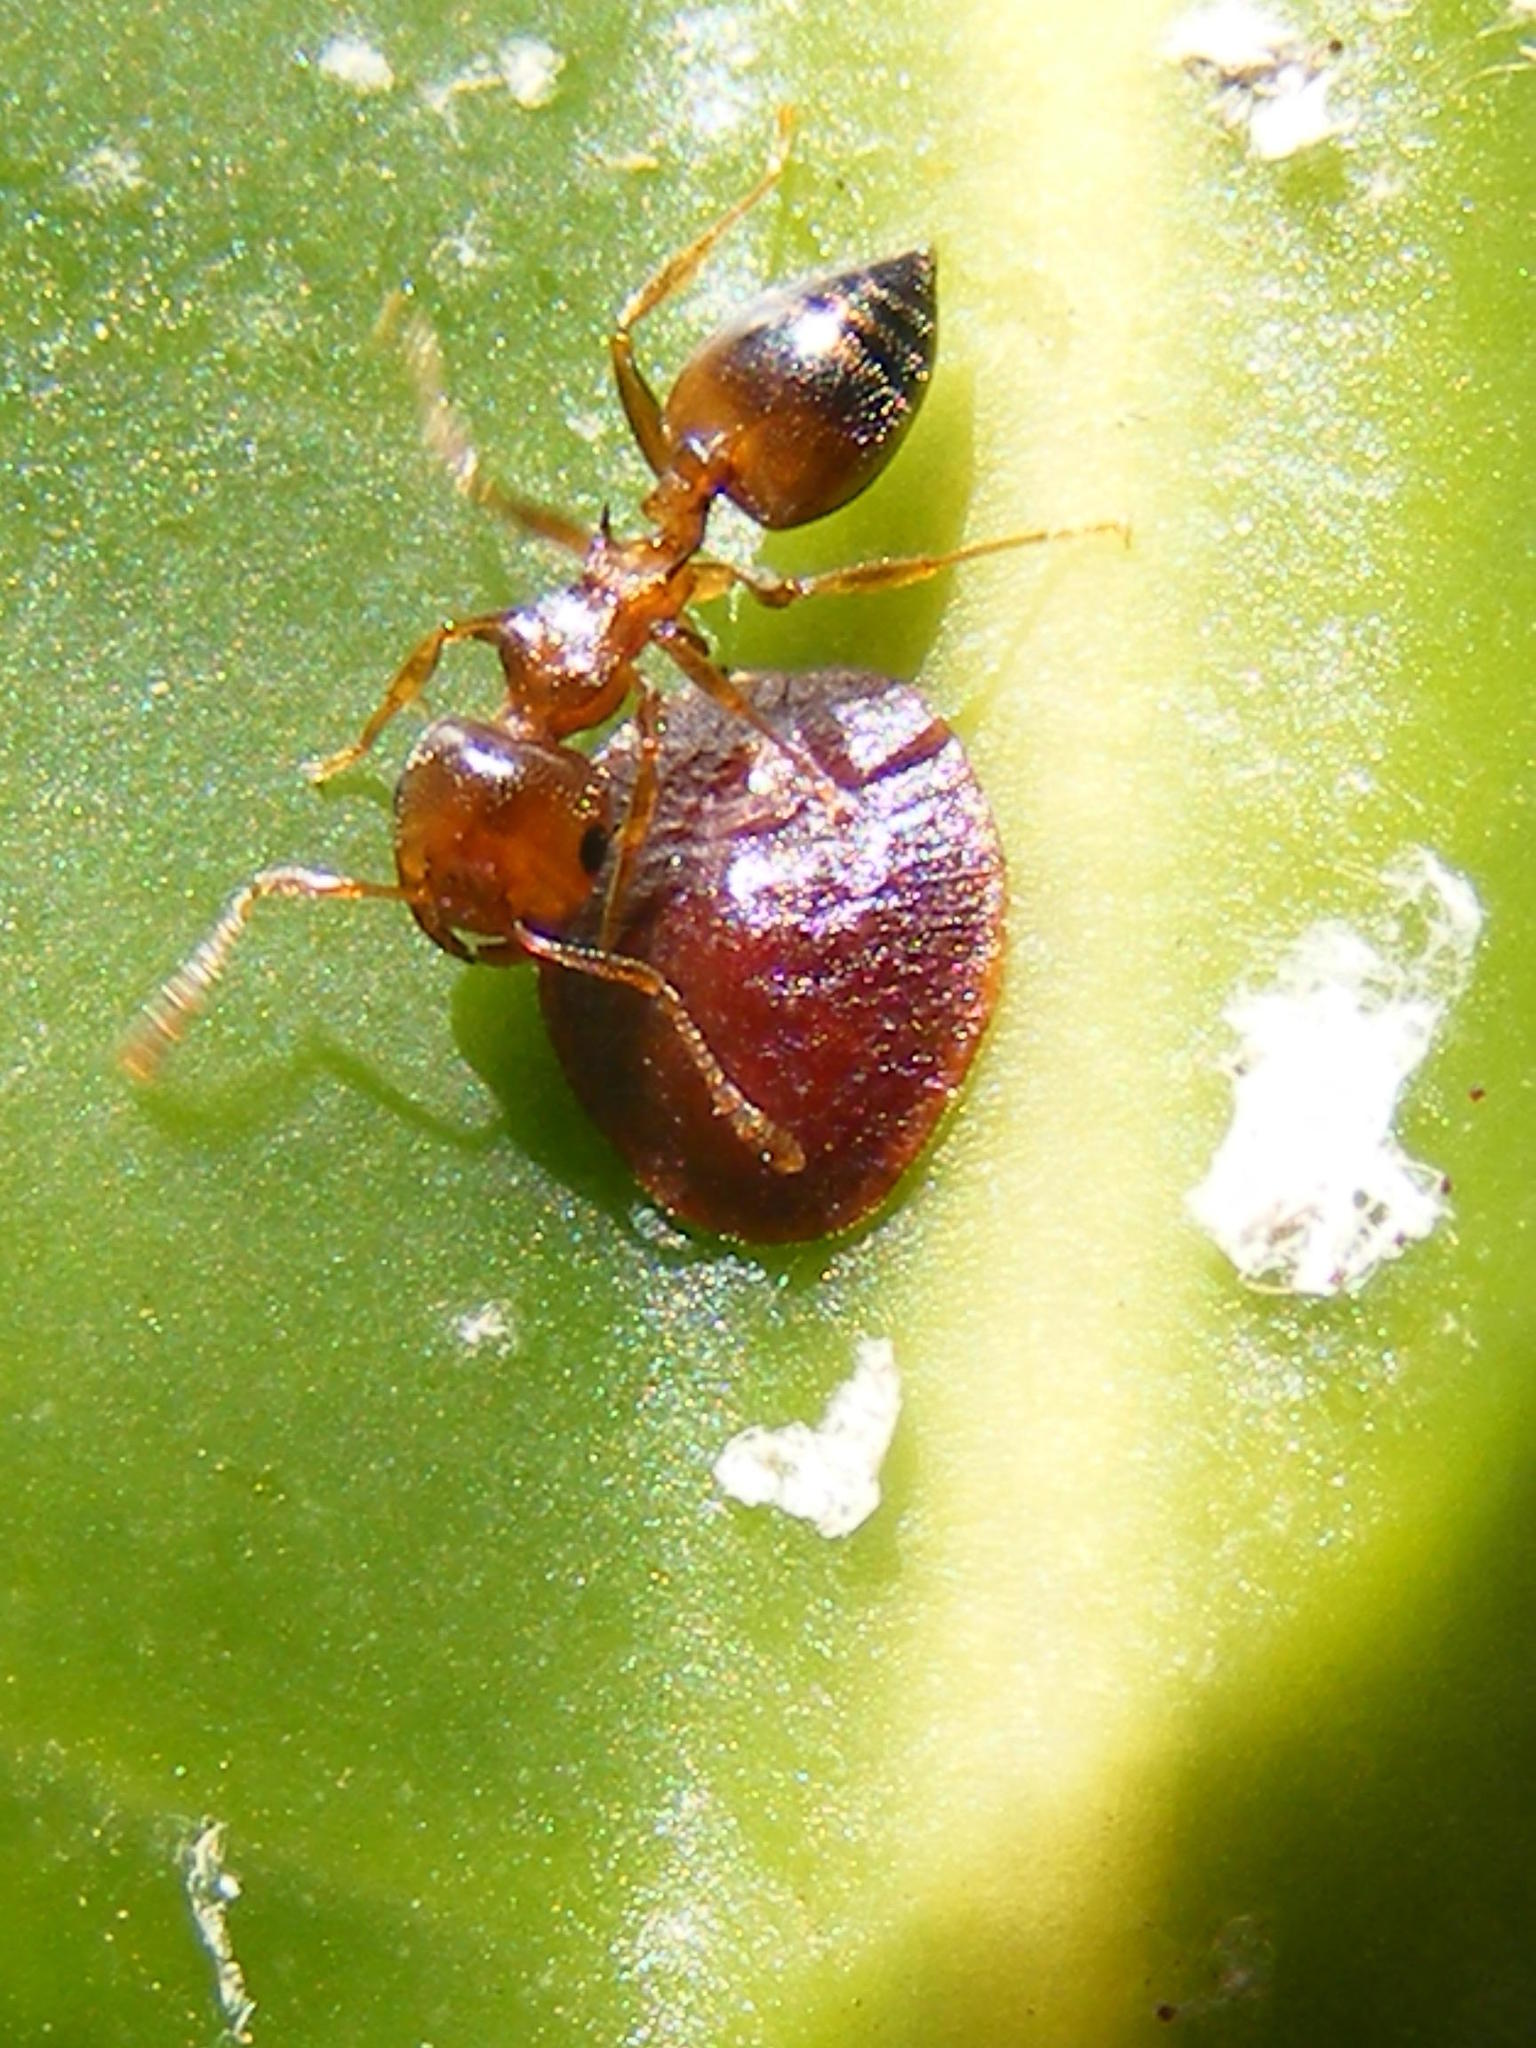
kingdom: Animalia
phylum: Arthropoda
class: Insecta
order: Hymenoptera
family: Formicidae
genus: Crematogaster
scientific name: Crematogaster castanea
